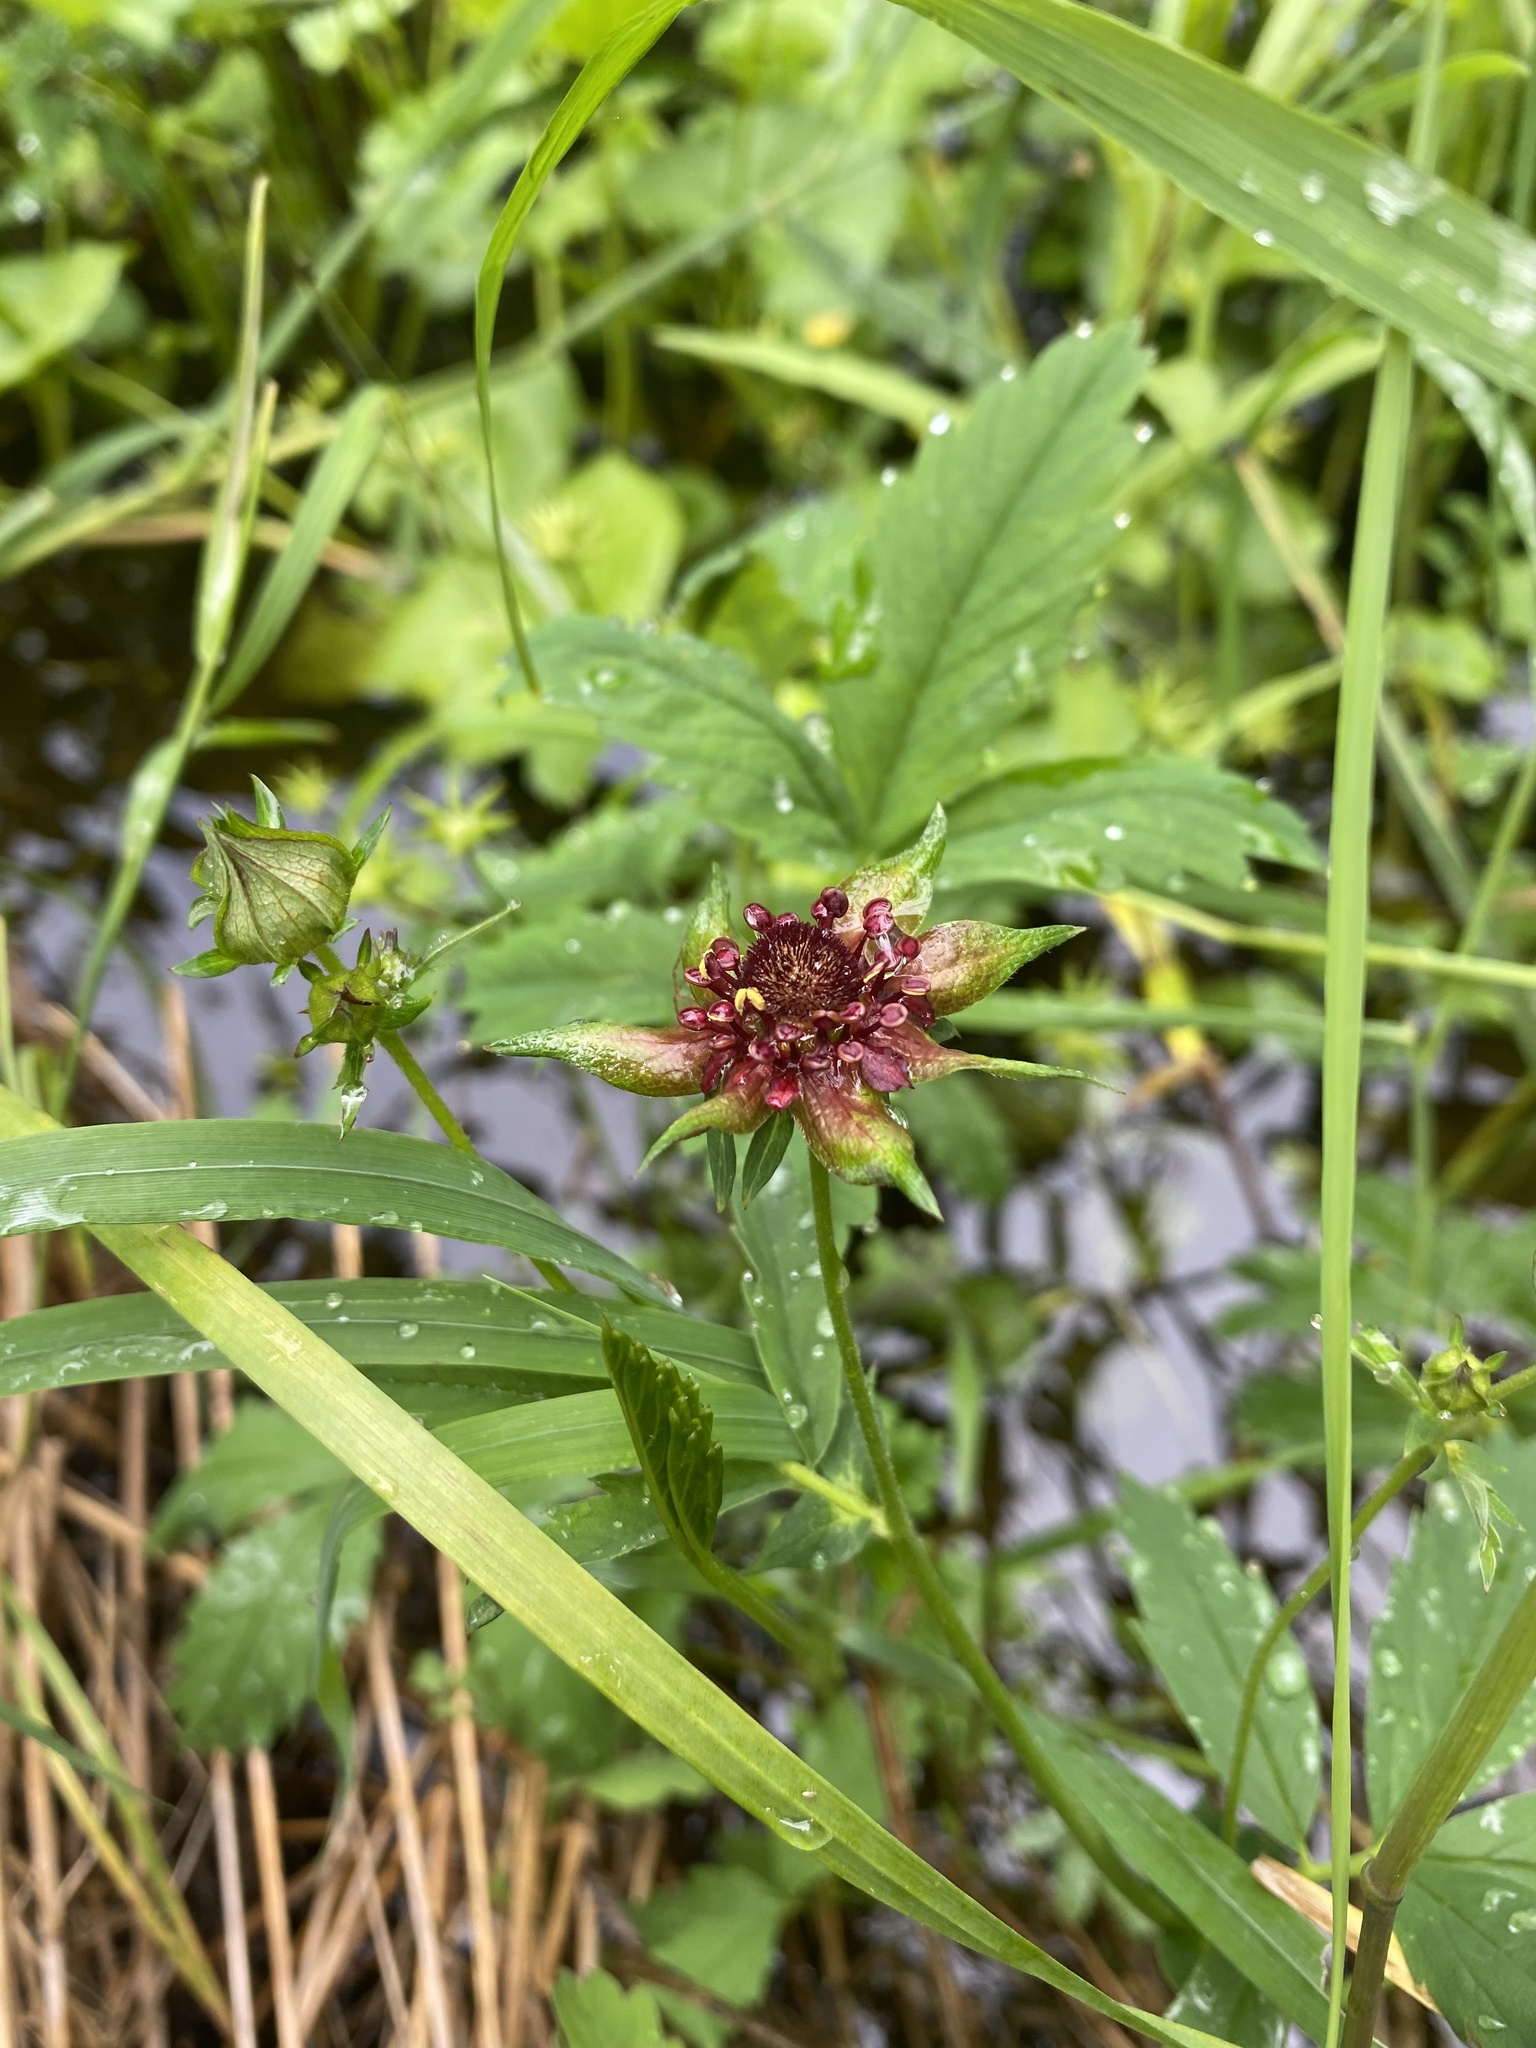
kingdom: Plantae
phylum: Tracheophyta
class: Magnoliopsida
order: Rosales
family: Rosaceae
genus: Comarum
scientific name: Comarum palustre
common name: Marsh cinquefoil
